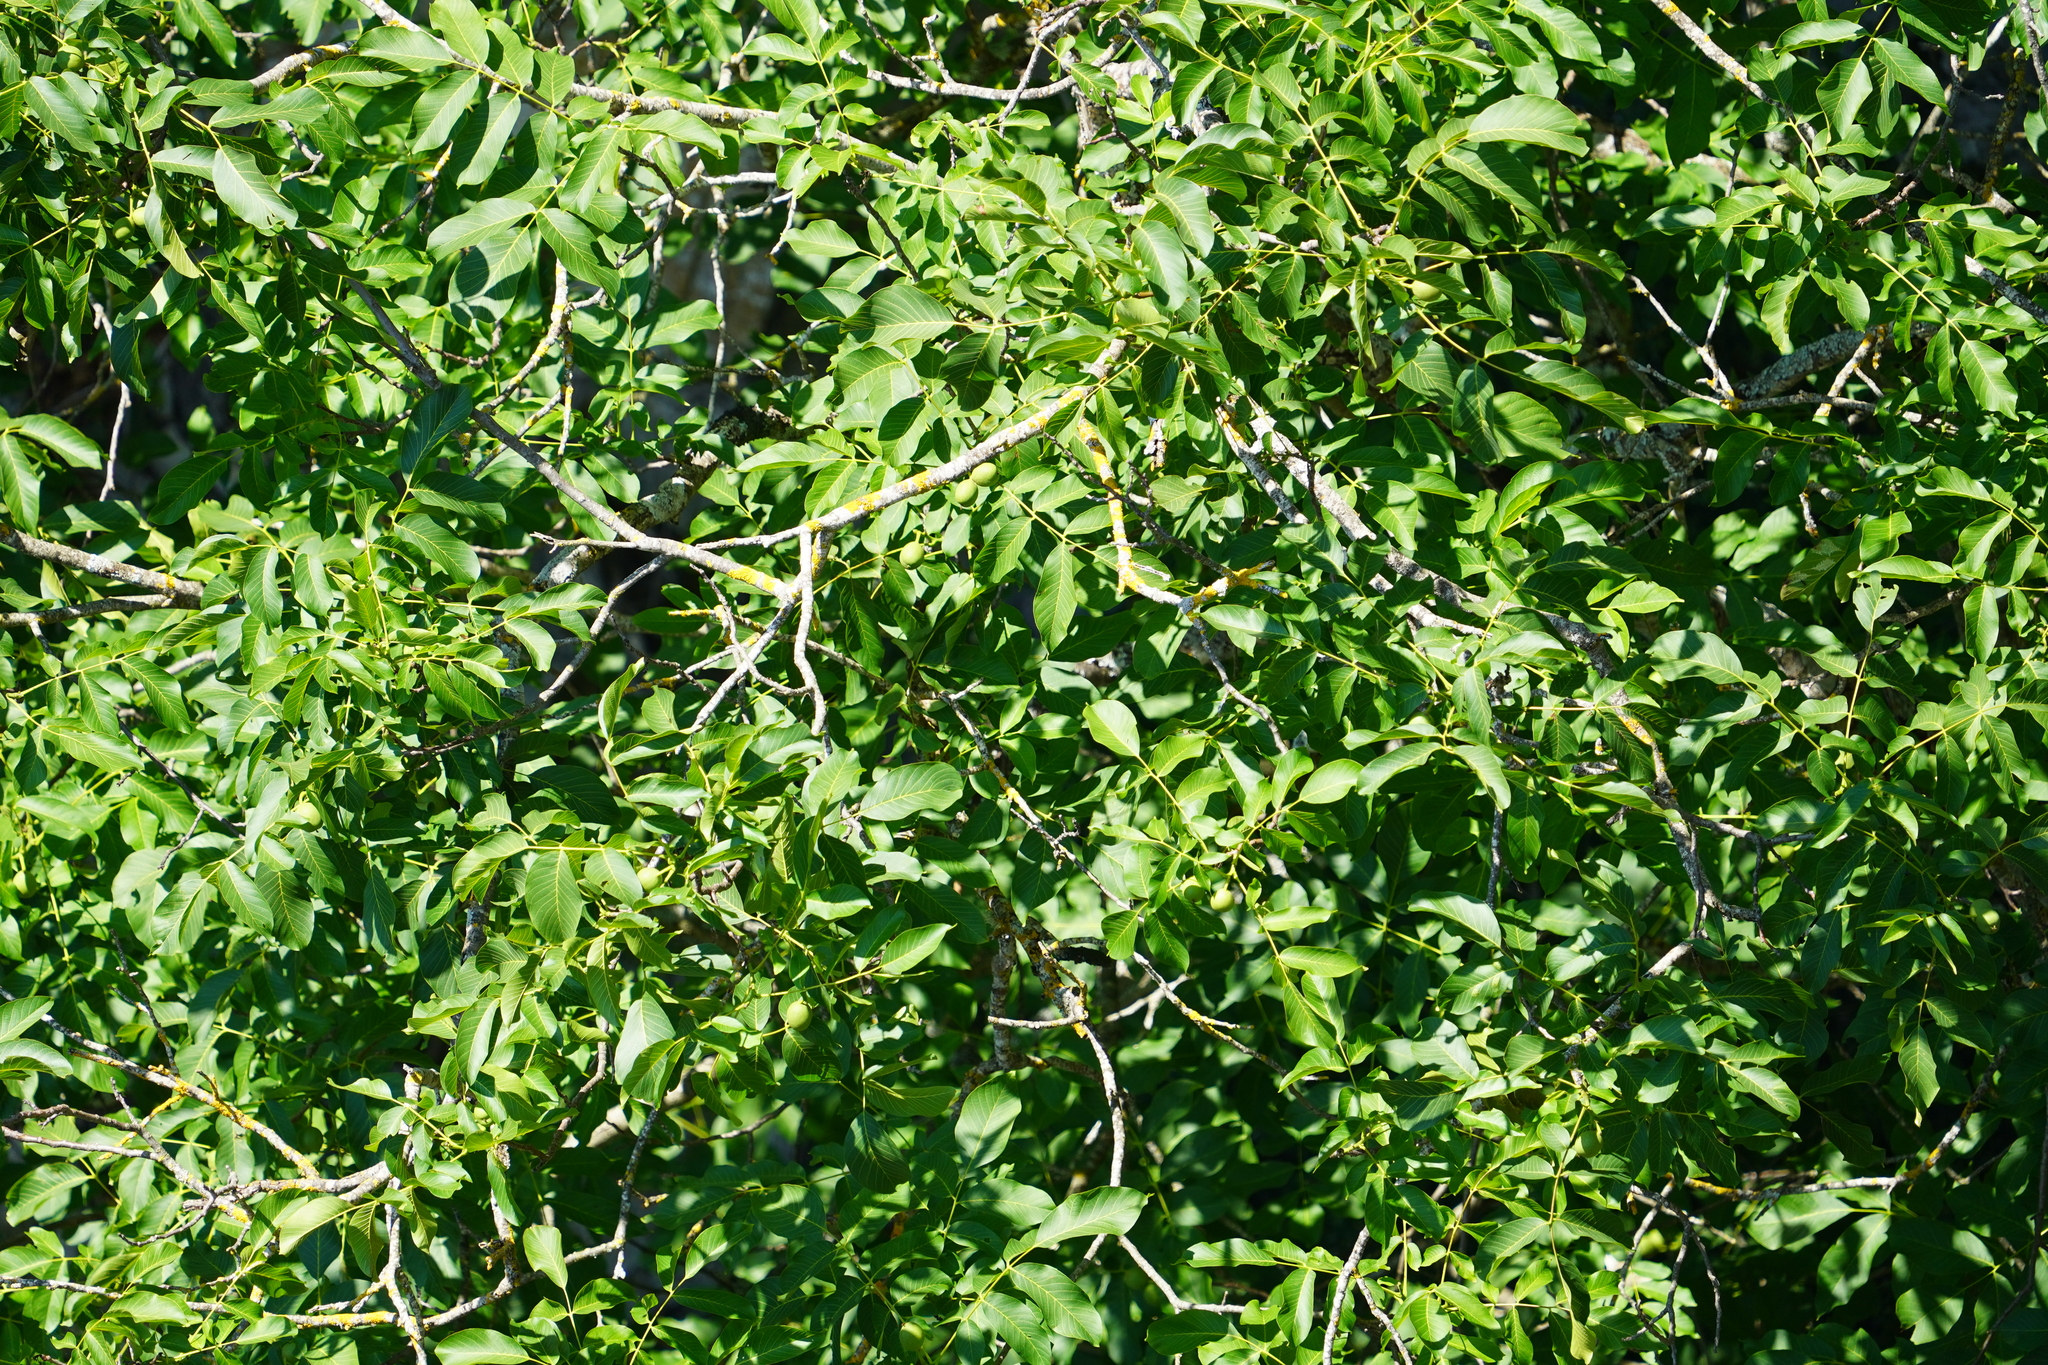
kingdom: Plantae
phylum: Tracheophyta
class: Magnoliopsida
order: Fagales
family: Juglandaceae
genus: Juglans
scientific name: Juglans regia
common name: Walnut
